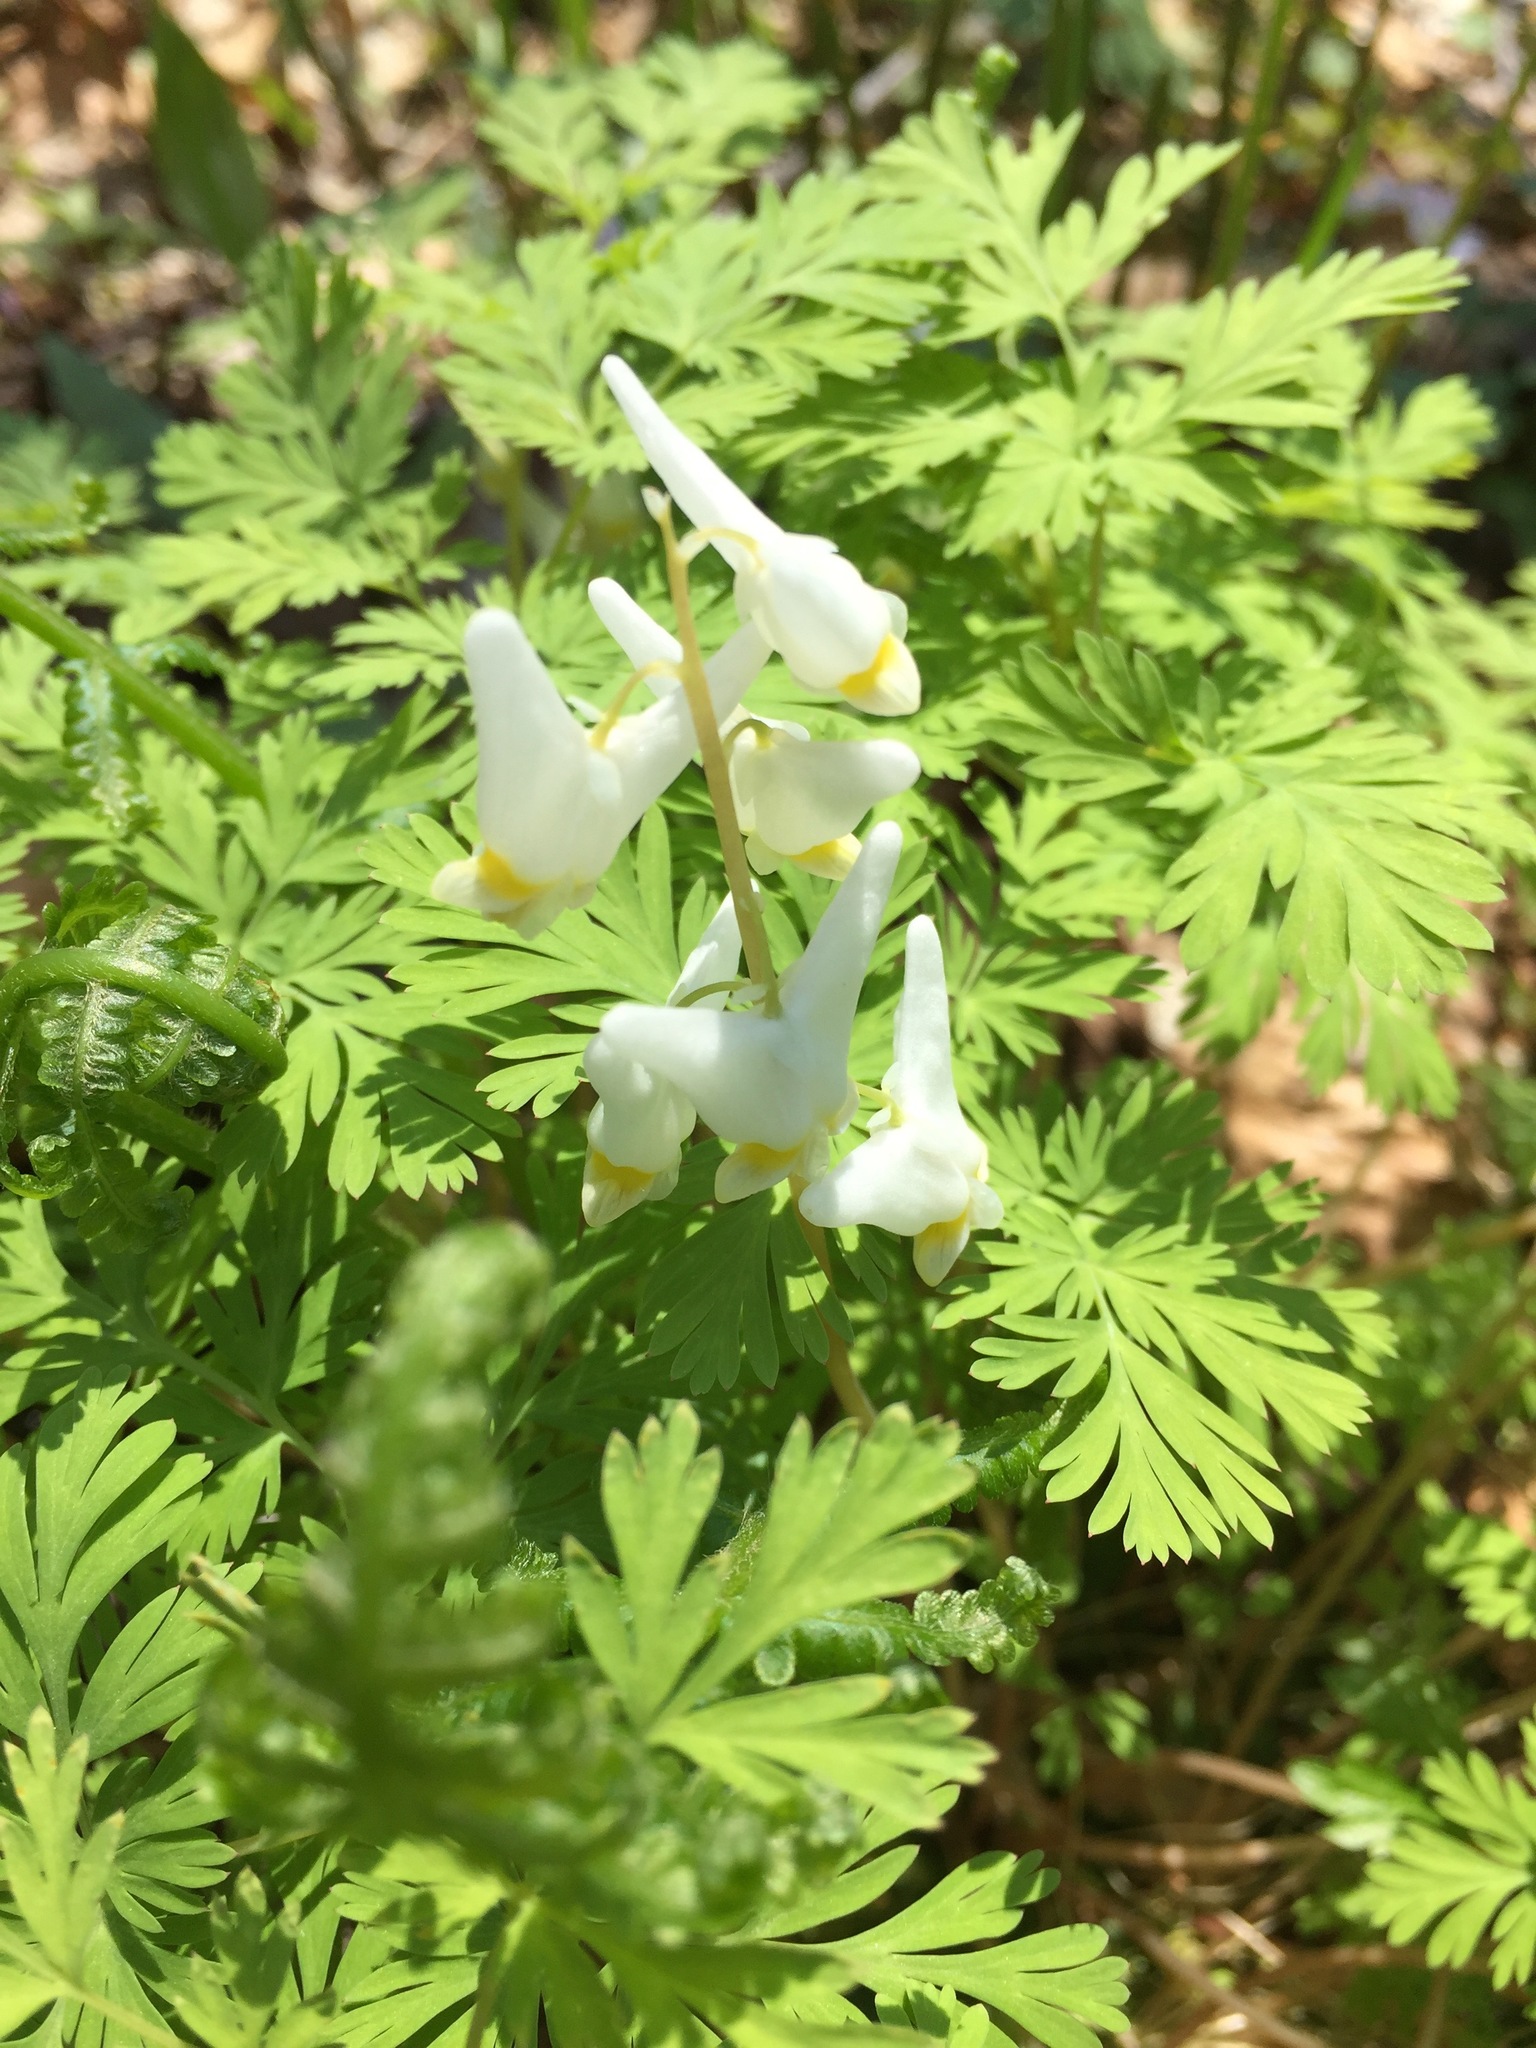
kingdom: Plantae
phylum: Tracheophyta
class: Magnoliopsida
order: Ranunculales
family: Papaveraceae
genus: Dicentra
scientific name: Dicentra cucullaria
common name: Dutchman's breeches
